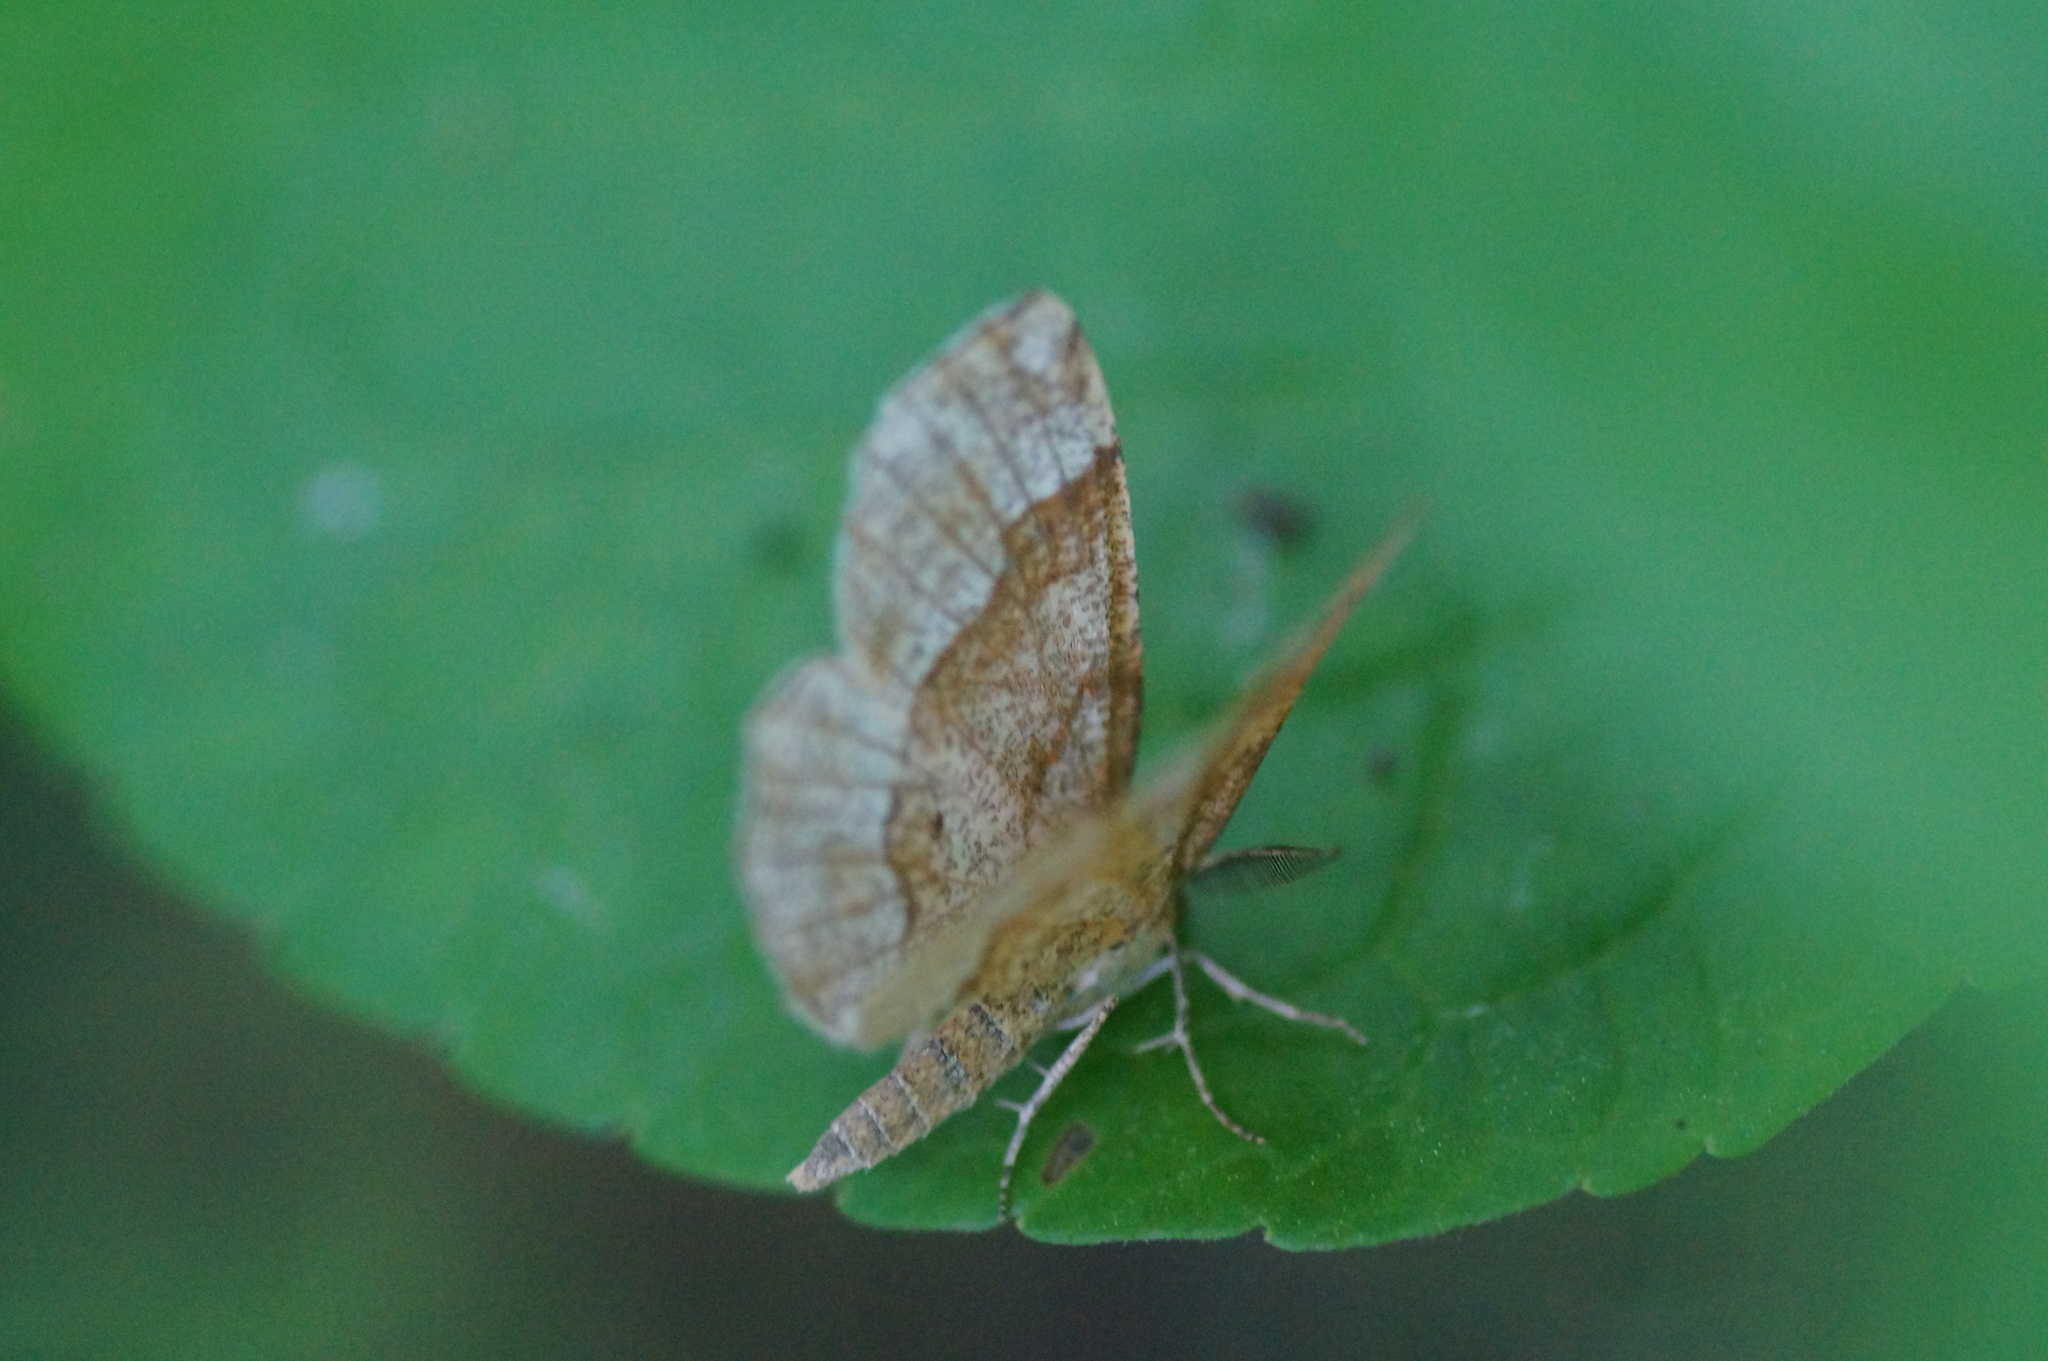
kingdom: Animalia
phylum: Arthropoda
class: Insecta
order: Lepidoptera
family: Geometridae
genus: Cepphis
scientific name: Cepphis advenaria
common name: Little thorn
